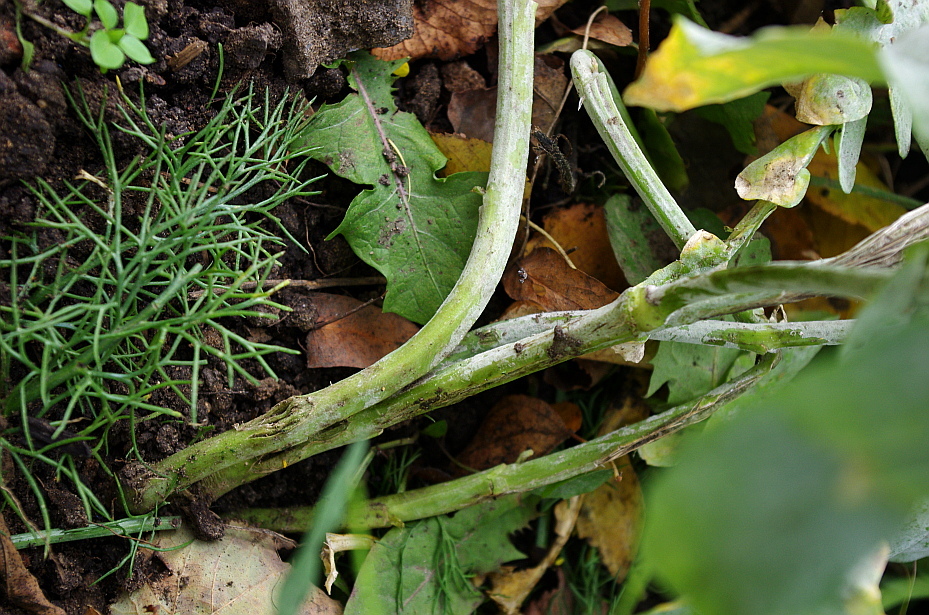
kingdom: Plantae
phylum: Tracheophyta
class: Magnoliopsida
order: Brassicales
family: Brassicaceae
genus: Brassica
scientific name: Brassica rapa
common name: Field mustard
